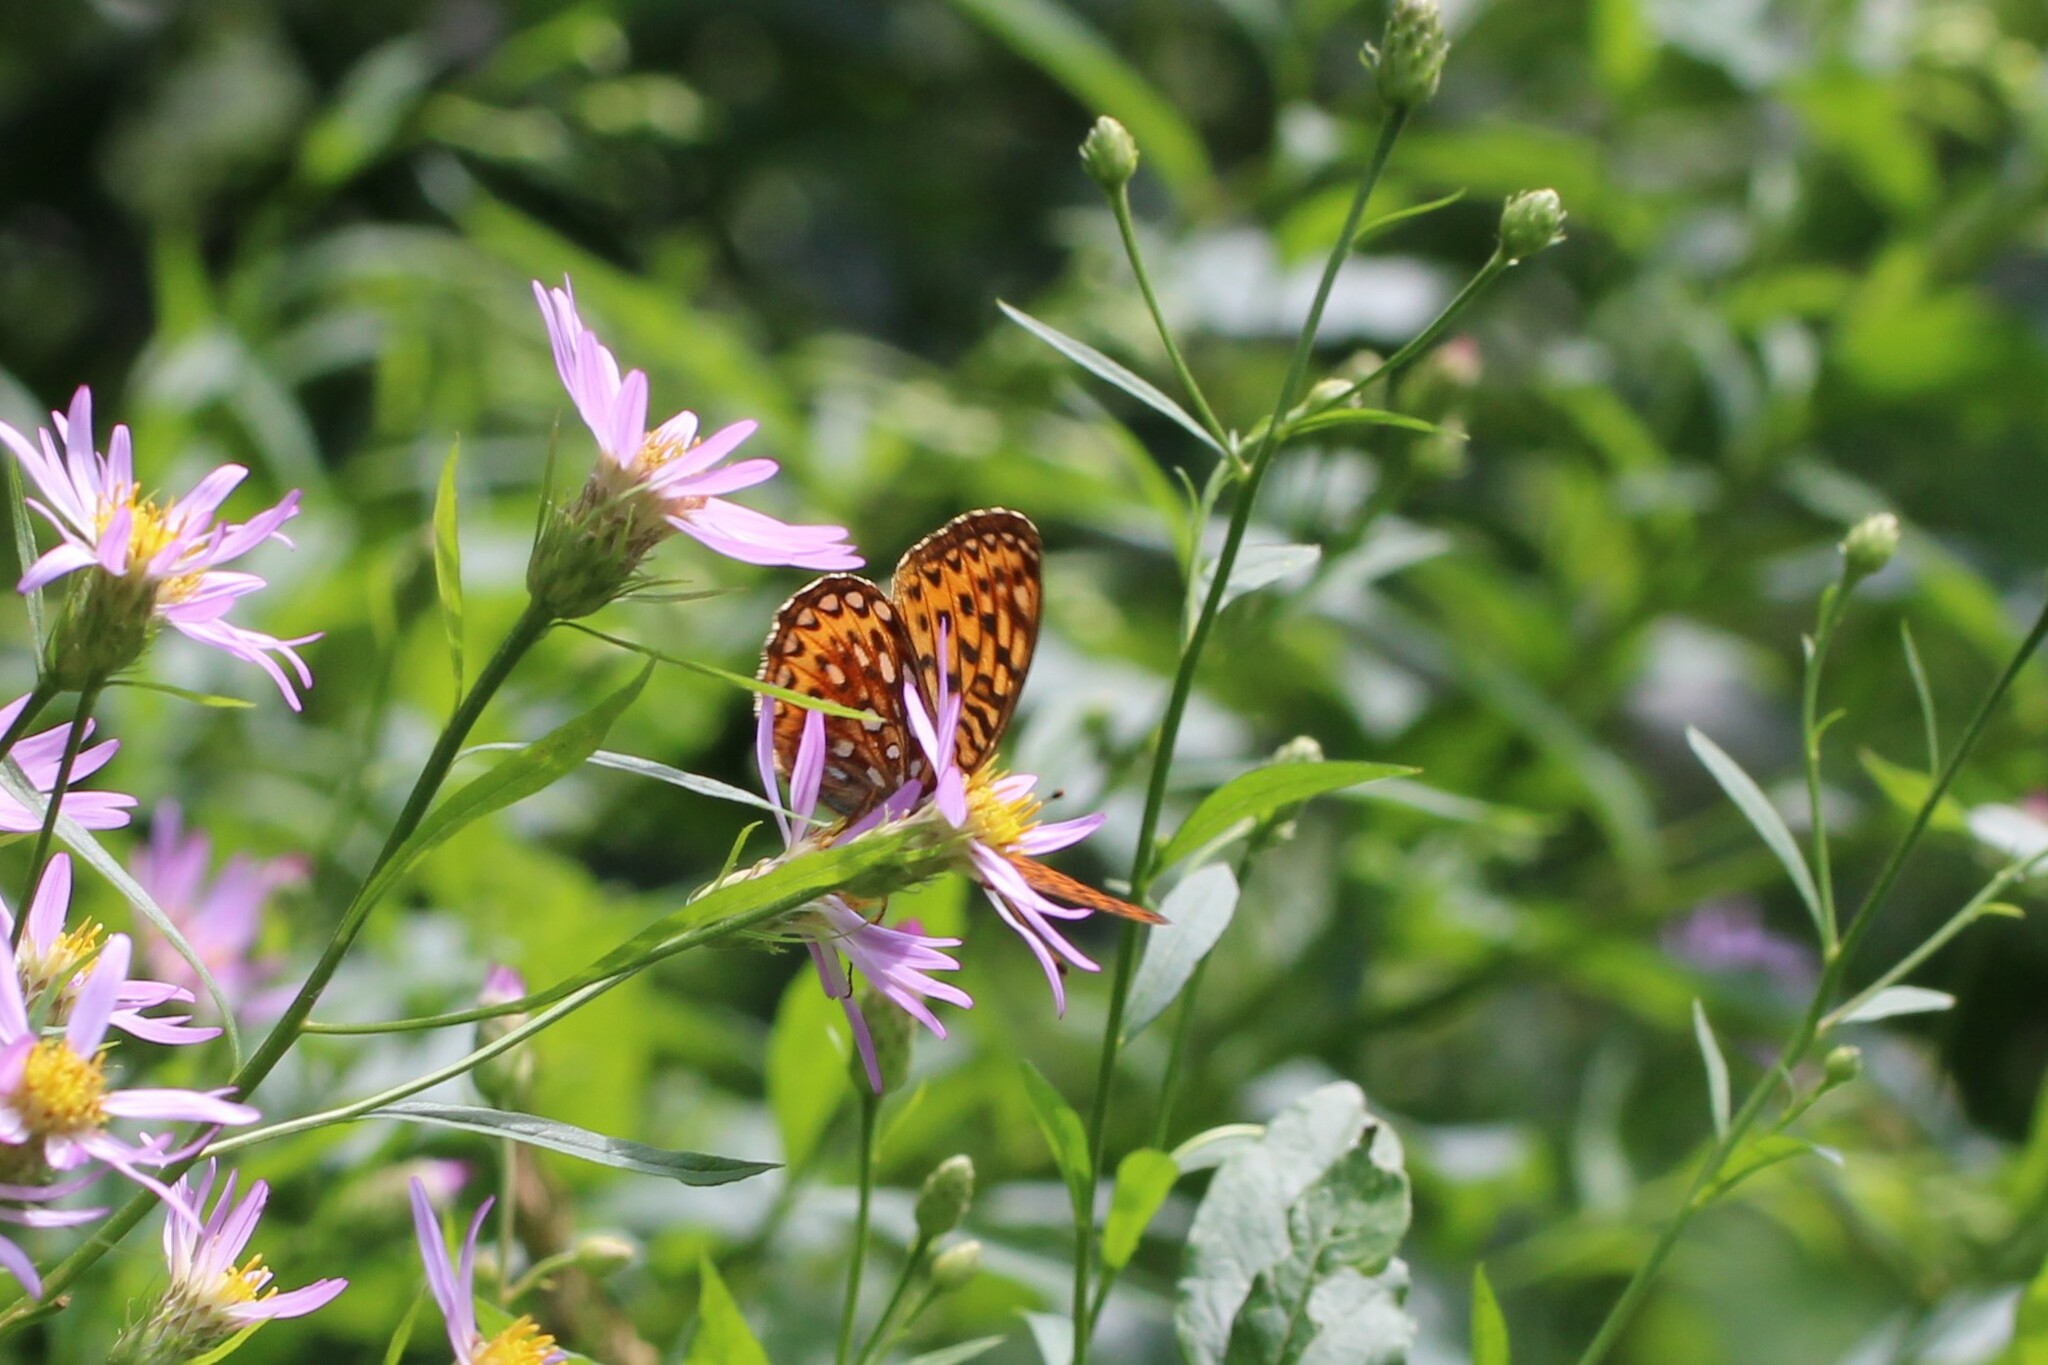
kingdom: Animalia
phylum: Arthropoda
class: Insecta
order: Lepidoptera
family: Nymphalidae
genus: Speyeria
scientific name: Speyeria atlantis
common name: Atlantis fritillary
